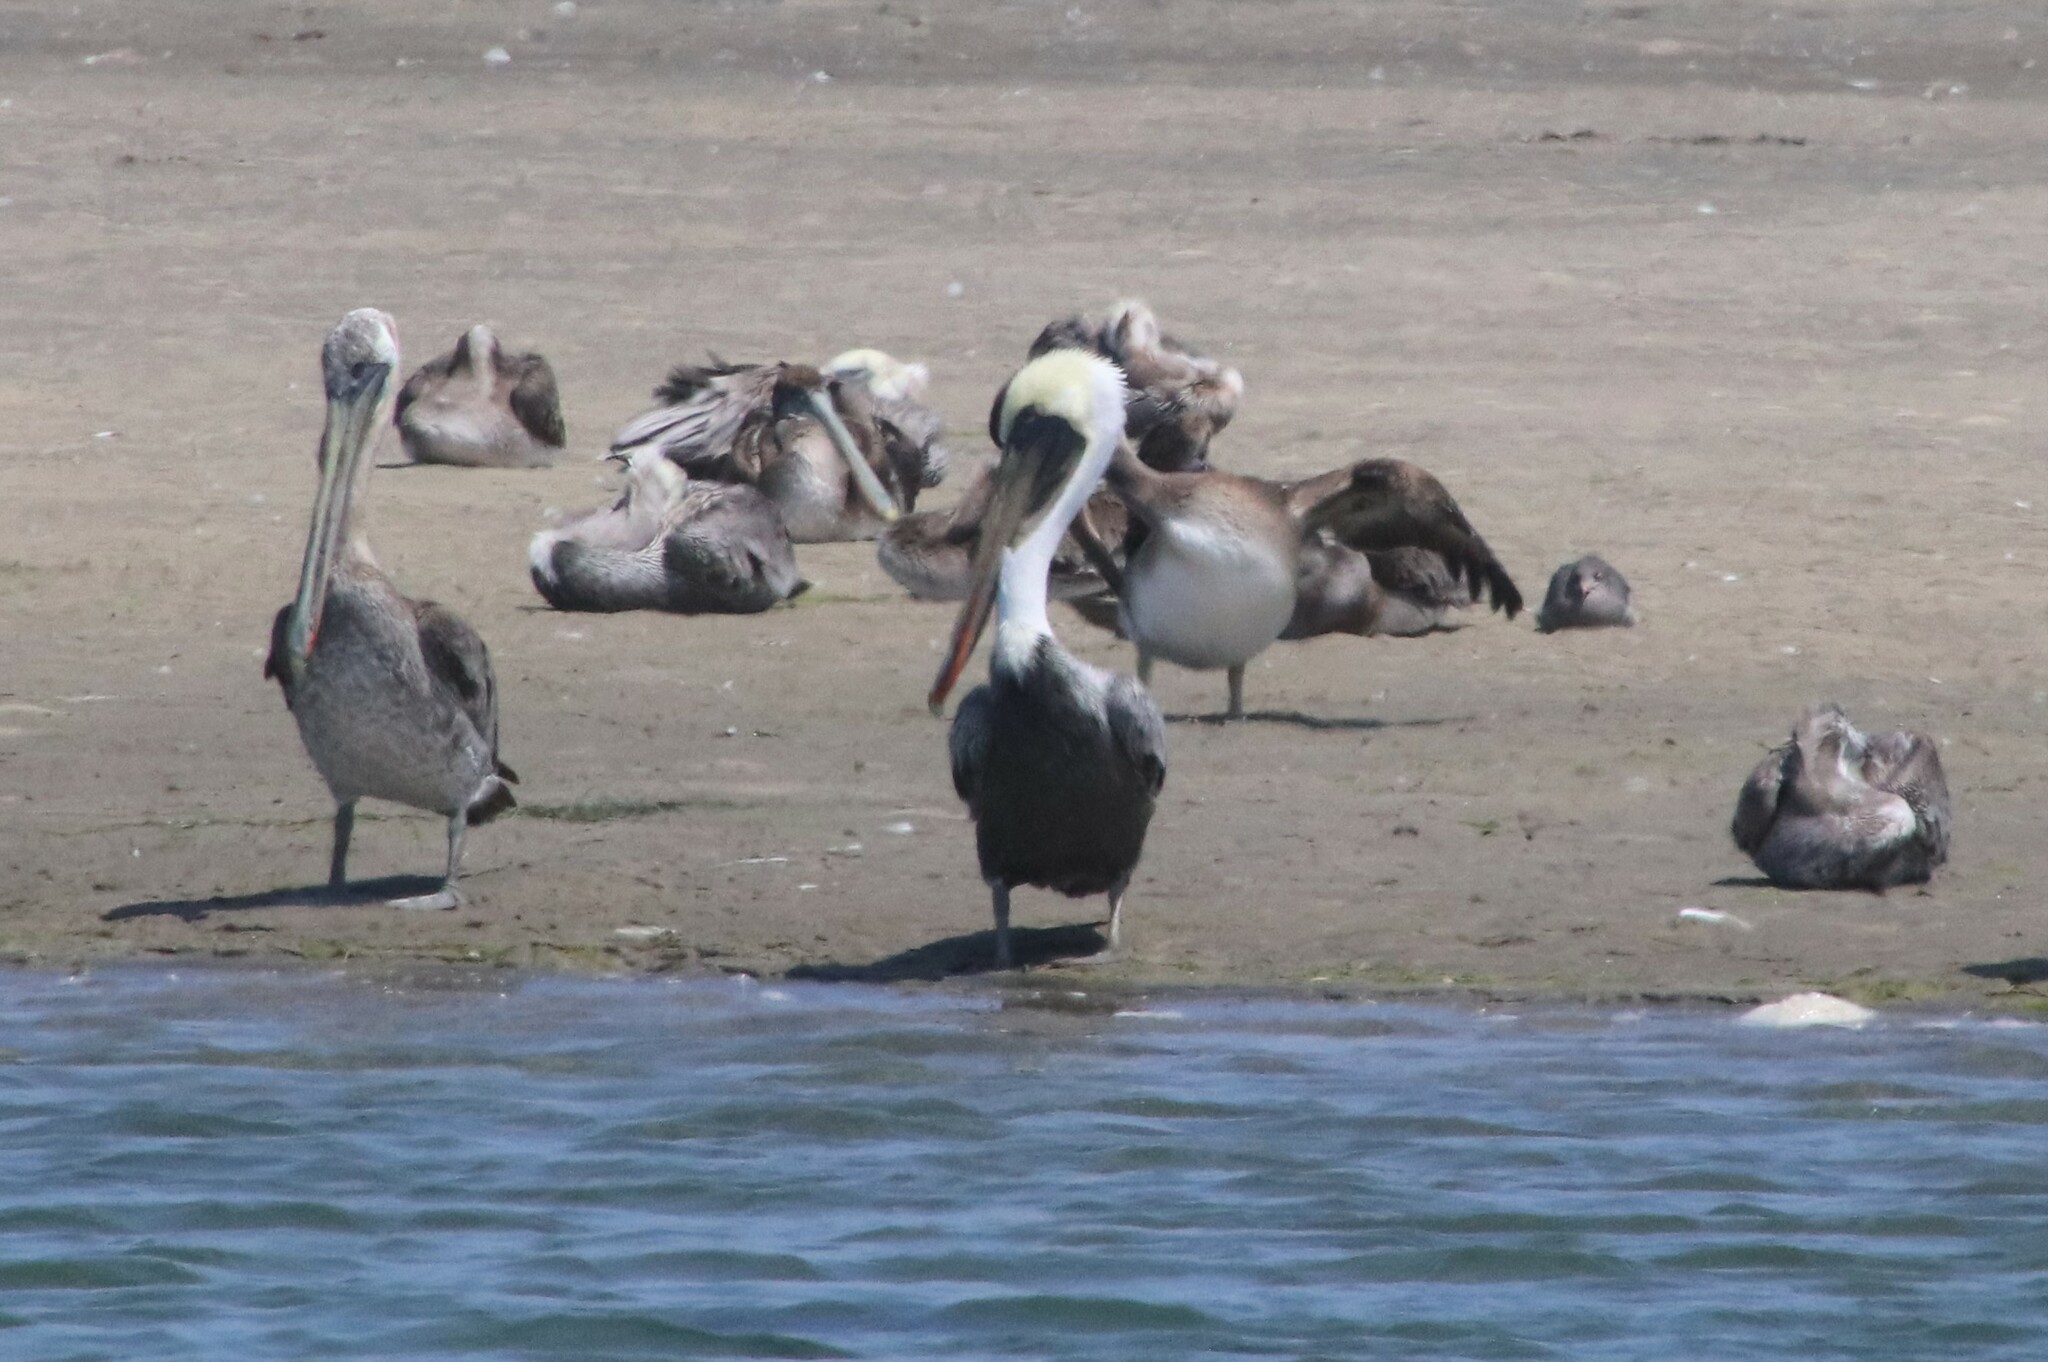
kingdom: Animalia
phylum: Chordata
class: Aves
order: Pelecaniformes
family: Pelecanidae
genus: Pelecanus
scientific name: Pelecanus occidentalis
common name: Brown pelican
